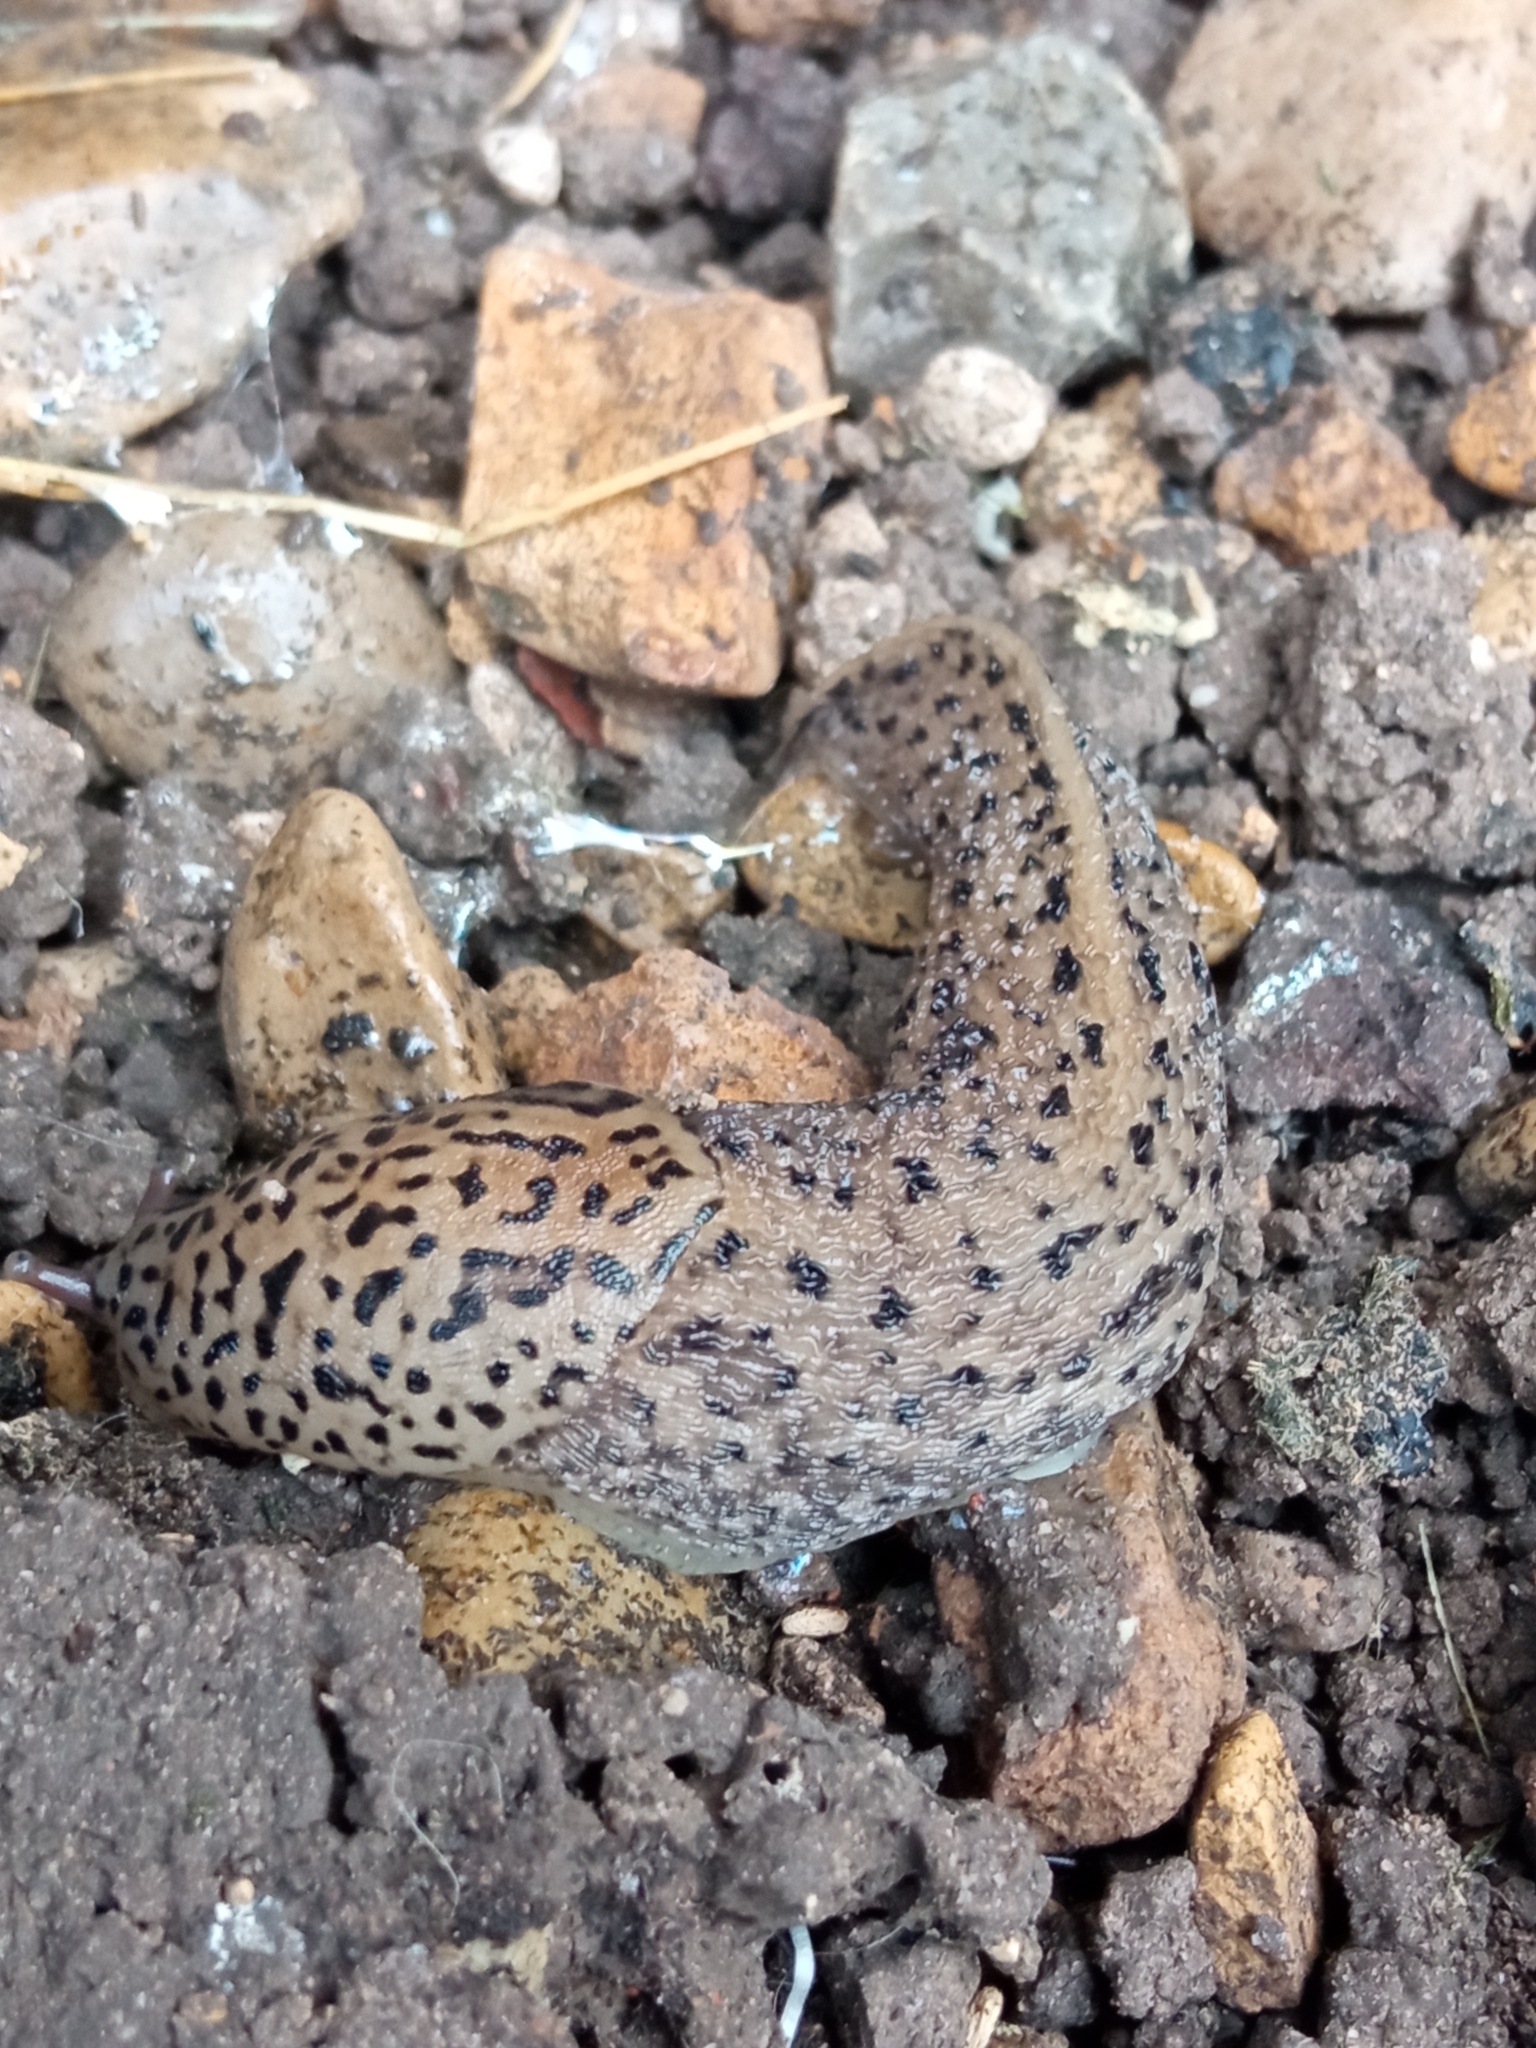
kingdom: Animalia
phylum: Mollusca
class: Gastropoda
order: Stylommatophora
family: Limacidae
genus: Limax
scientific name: Limax maximus
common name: Great grey slug
